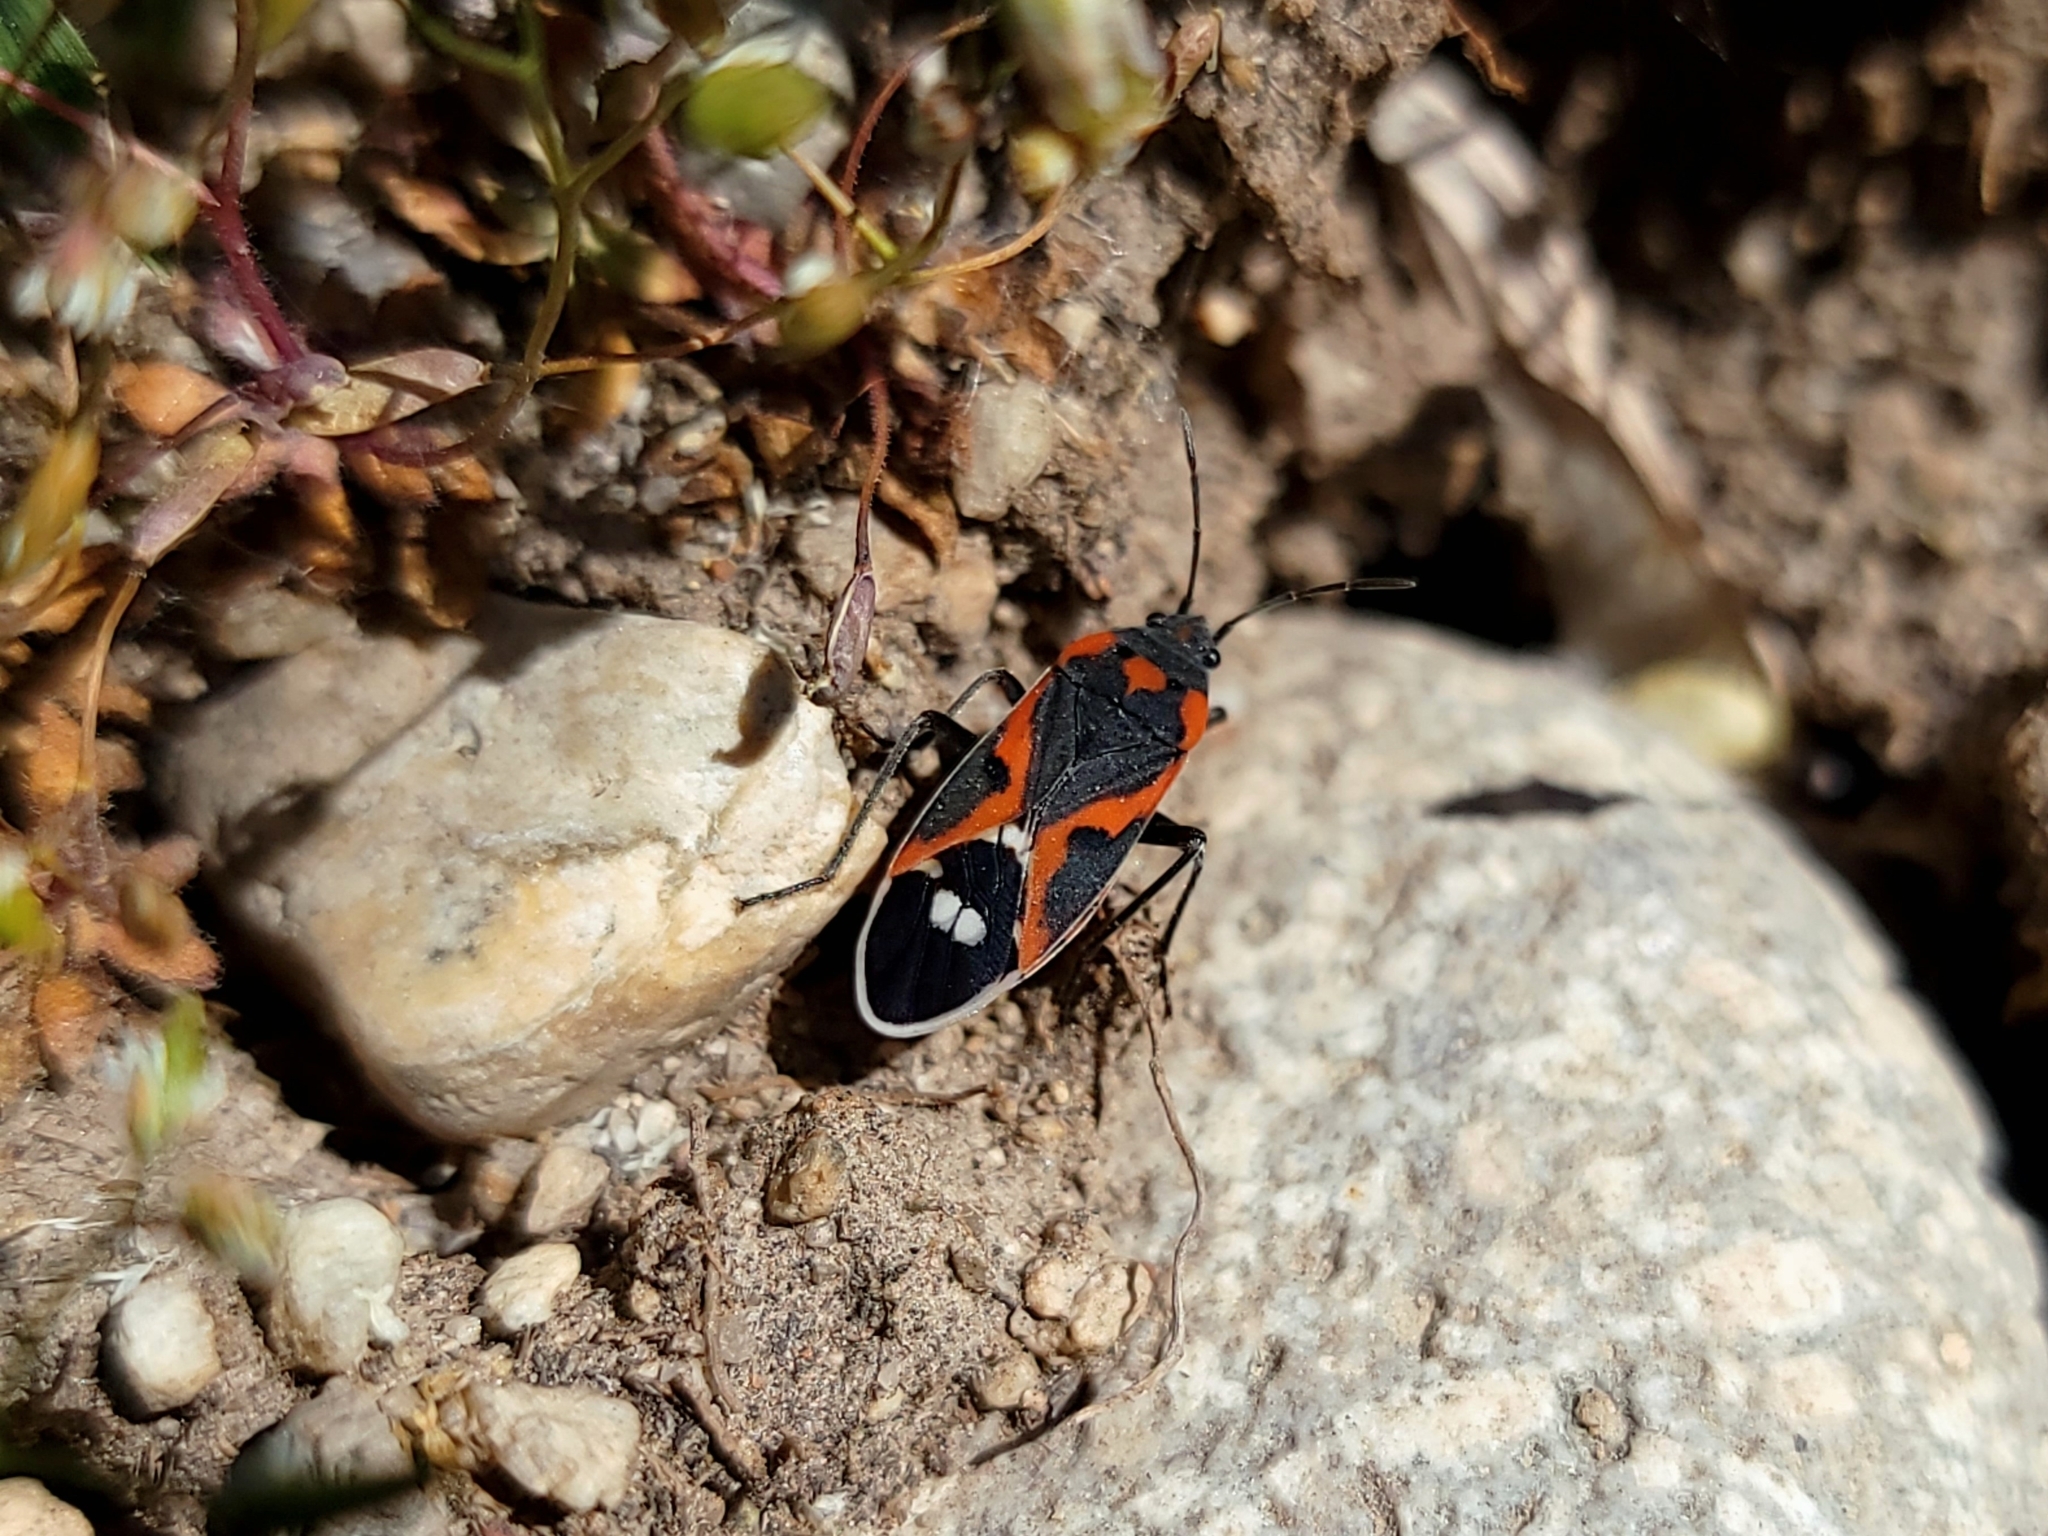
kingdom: Animalia
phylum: Arthropoda
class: Insecta
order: Hemiptera
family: Lygaeidae
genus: Lygaeus
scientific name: Lygaeus kalmii
